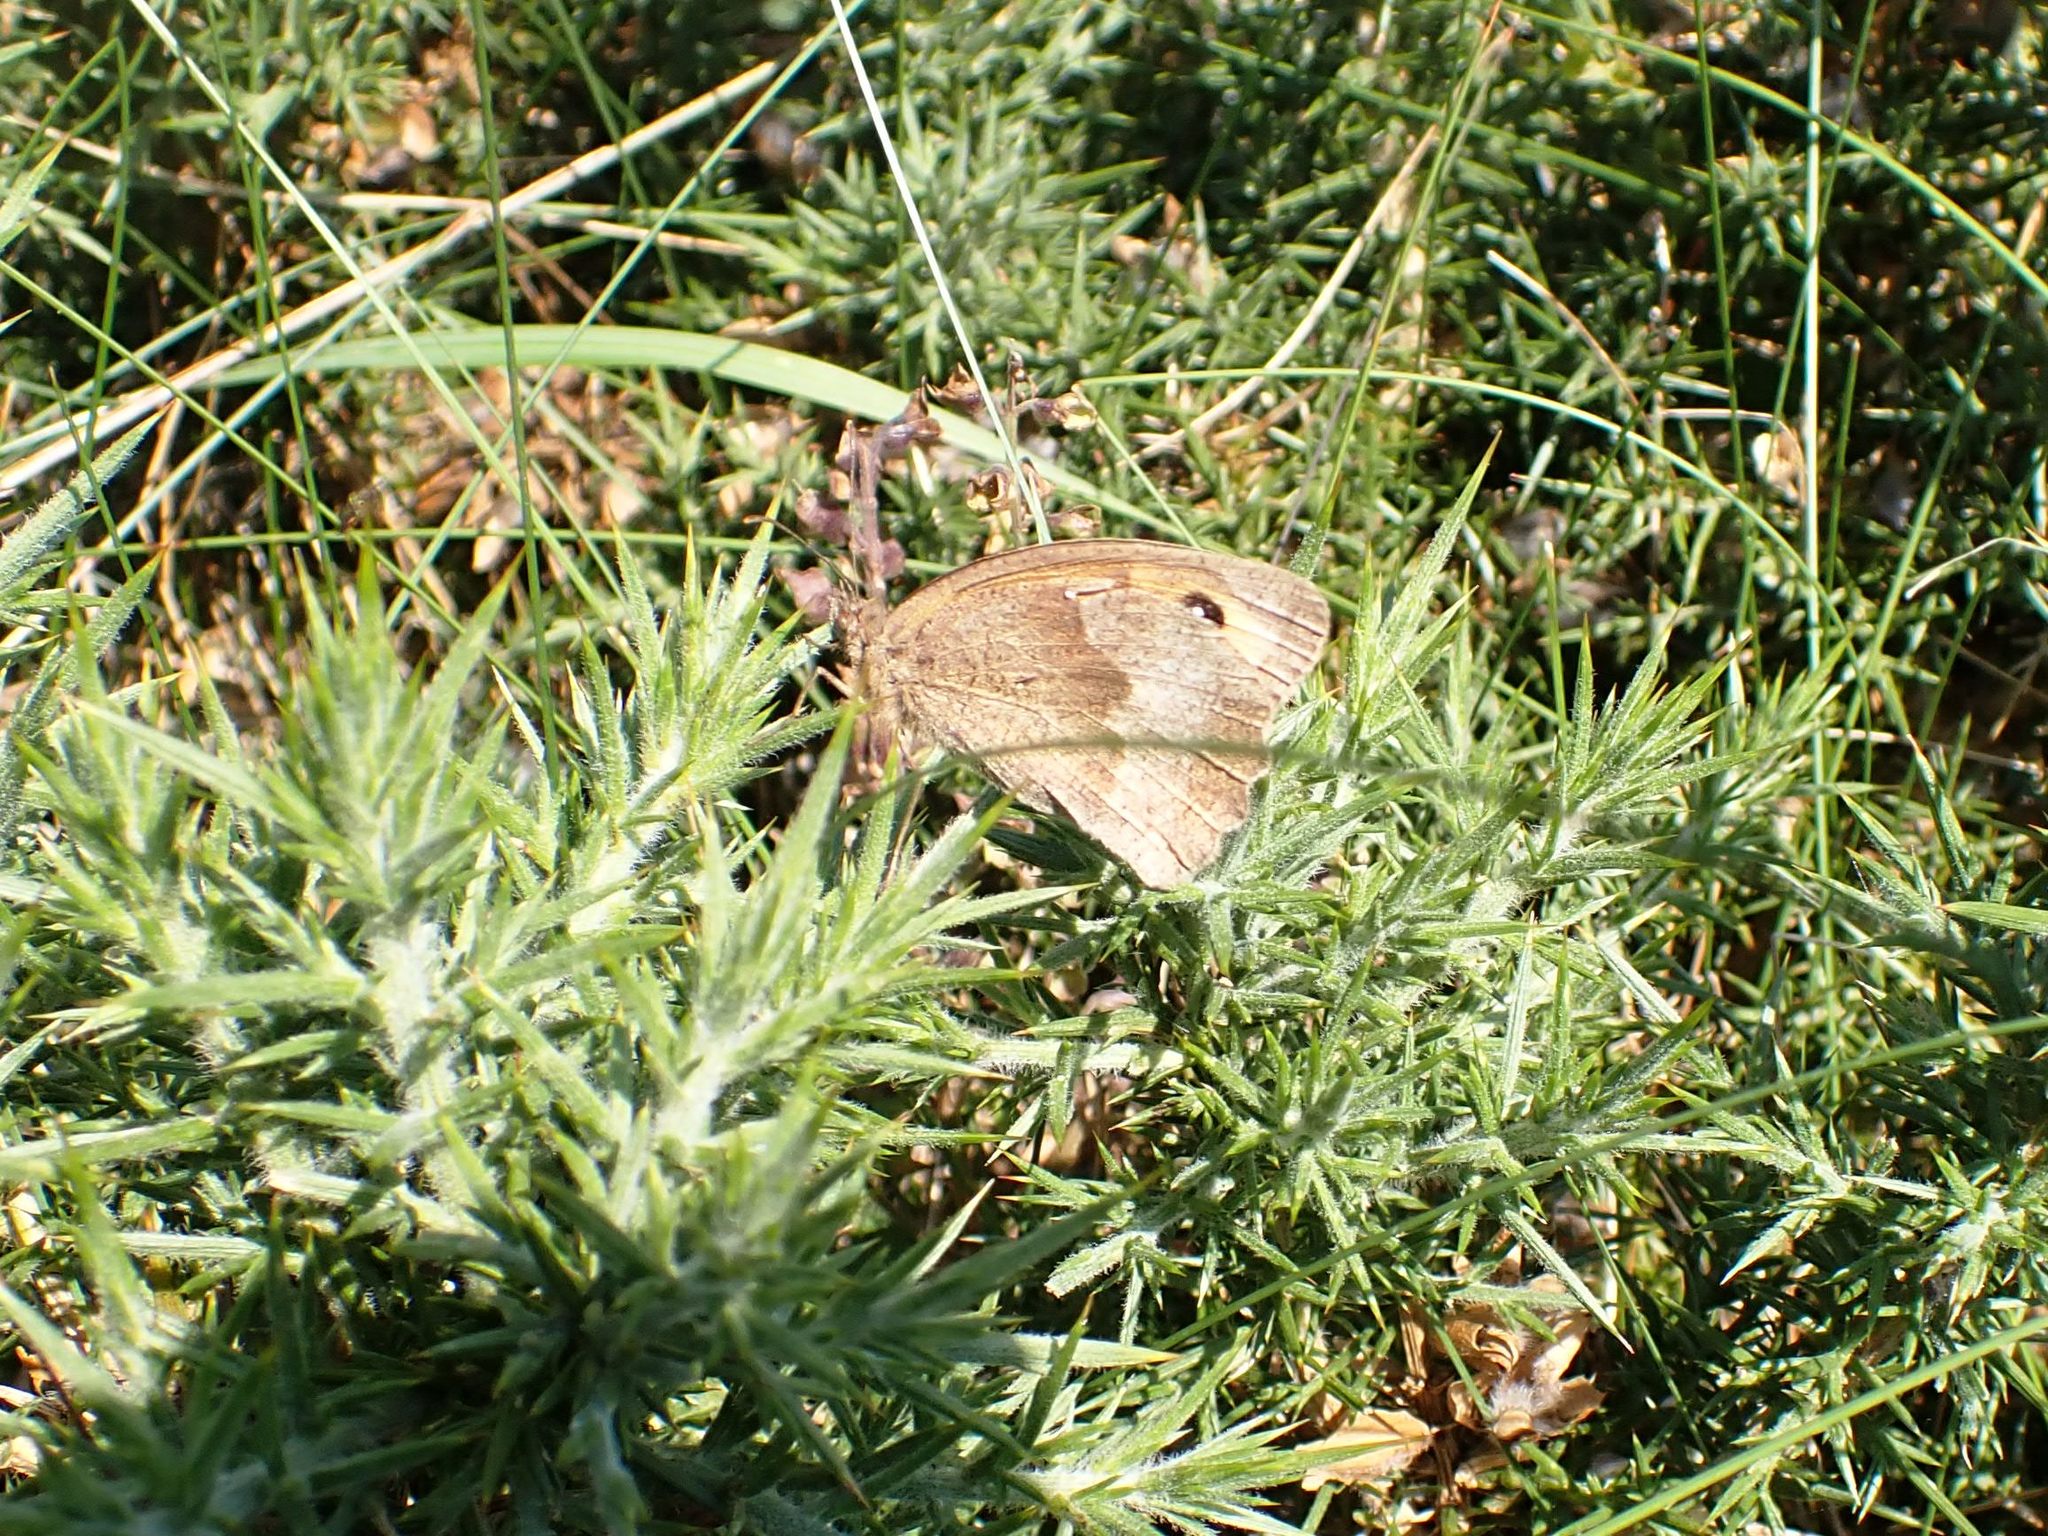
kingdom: Animalia
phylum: Arthropoda
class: Insecta
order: Lepidoptera
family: Nymphalidae
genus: Maniola
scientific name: Maniola jurtina
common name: Meadow brown
